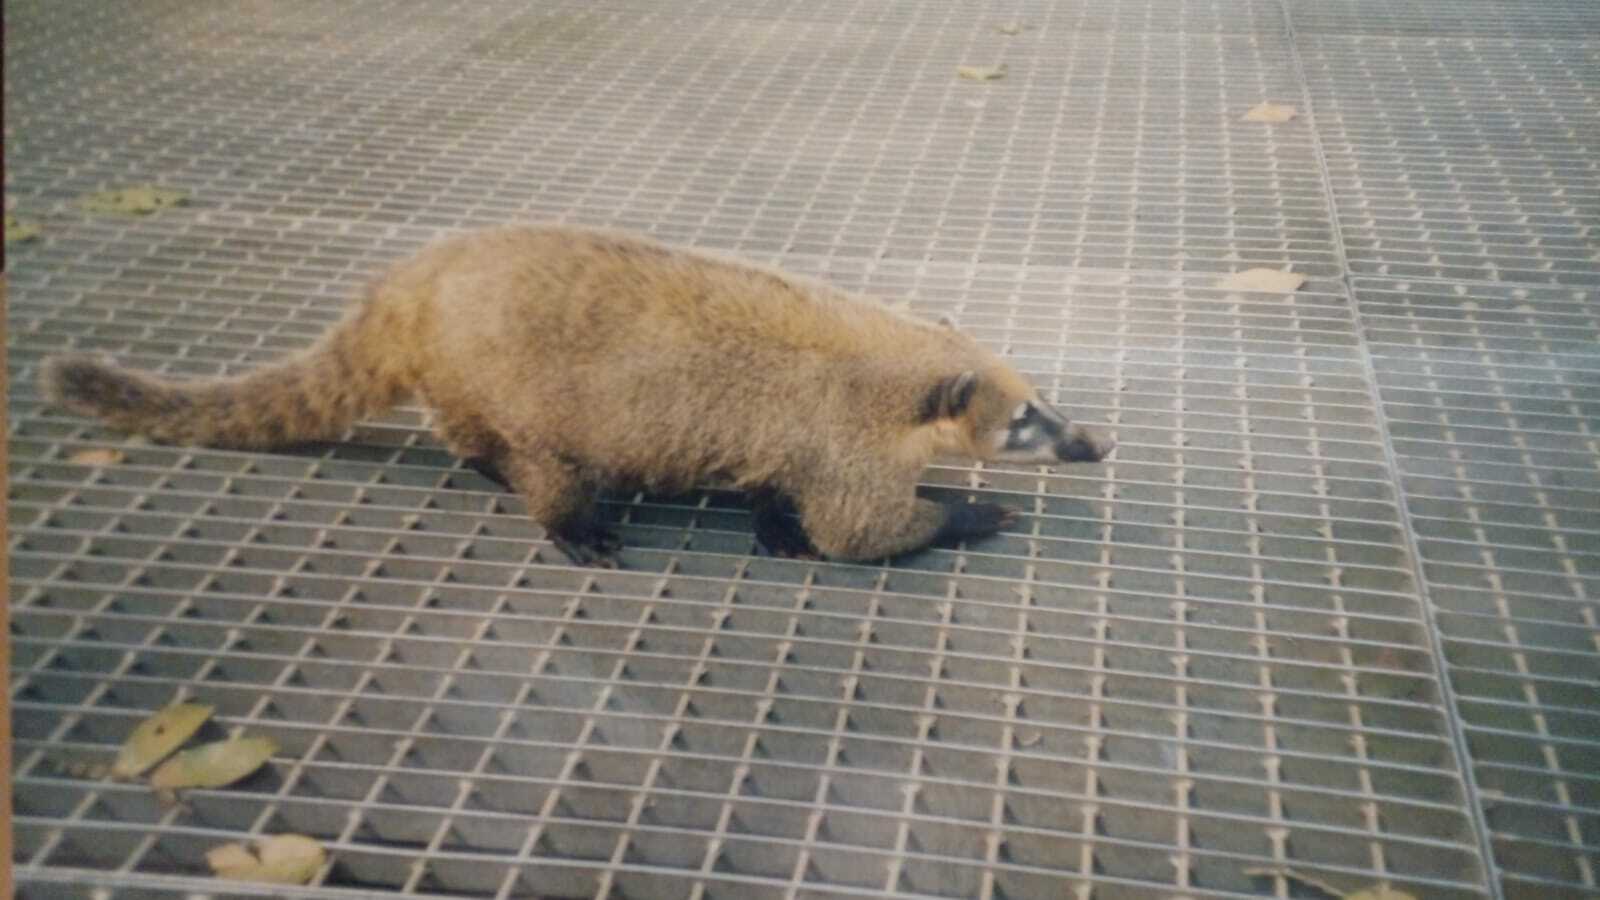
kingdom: Animalia
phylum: Chordata
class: Mammalia
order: Carnivora
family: Procyonidae
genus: Nasua
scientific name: Nasua nasua
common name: South american coati
